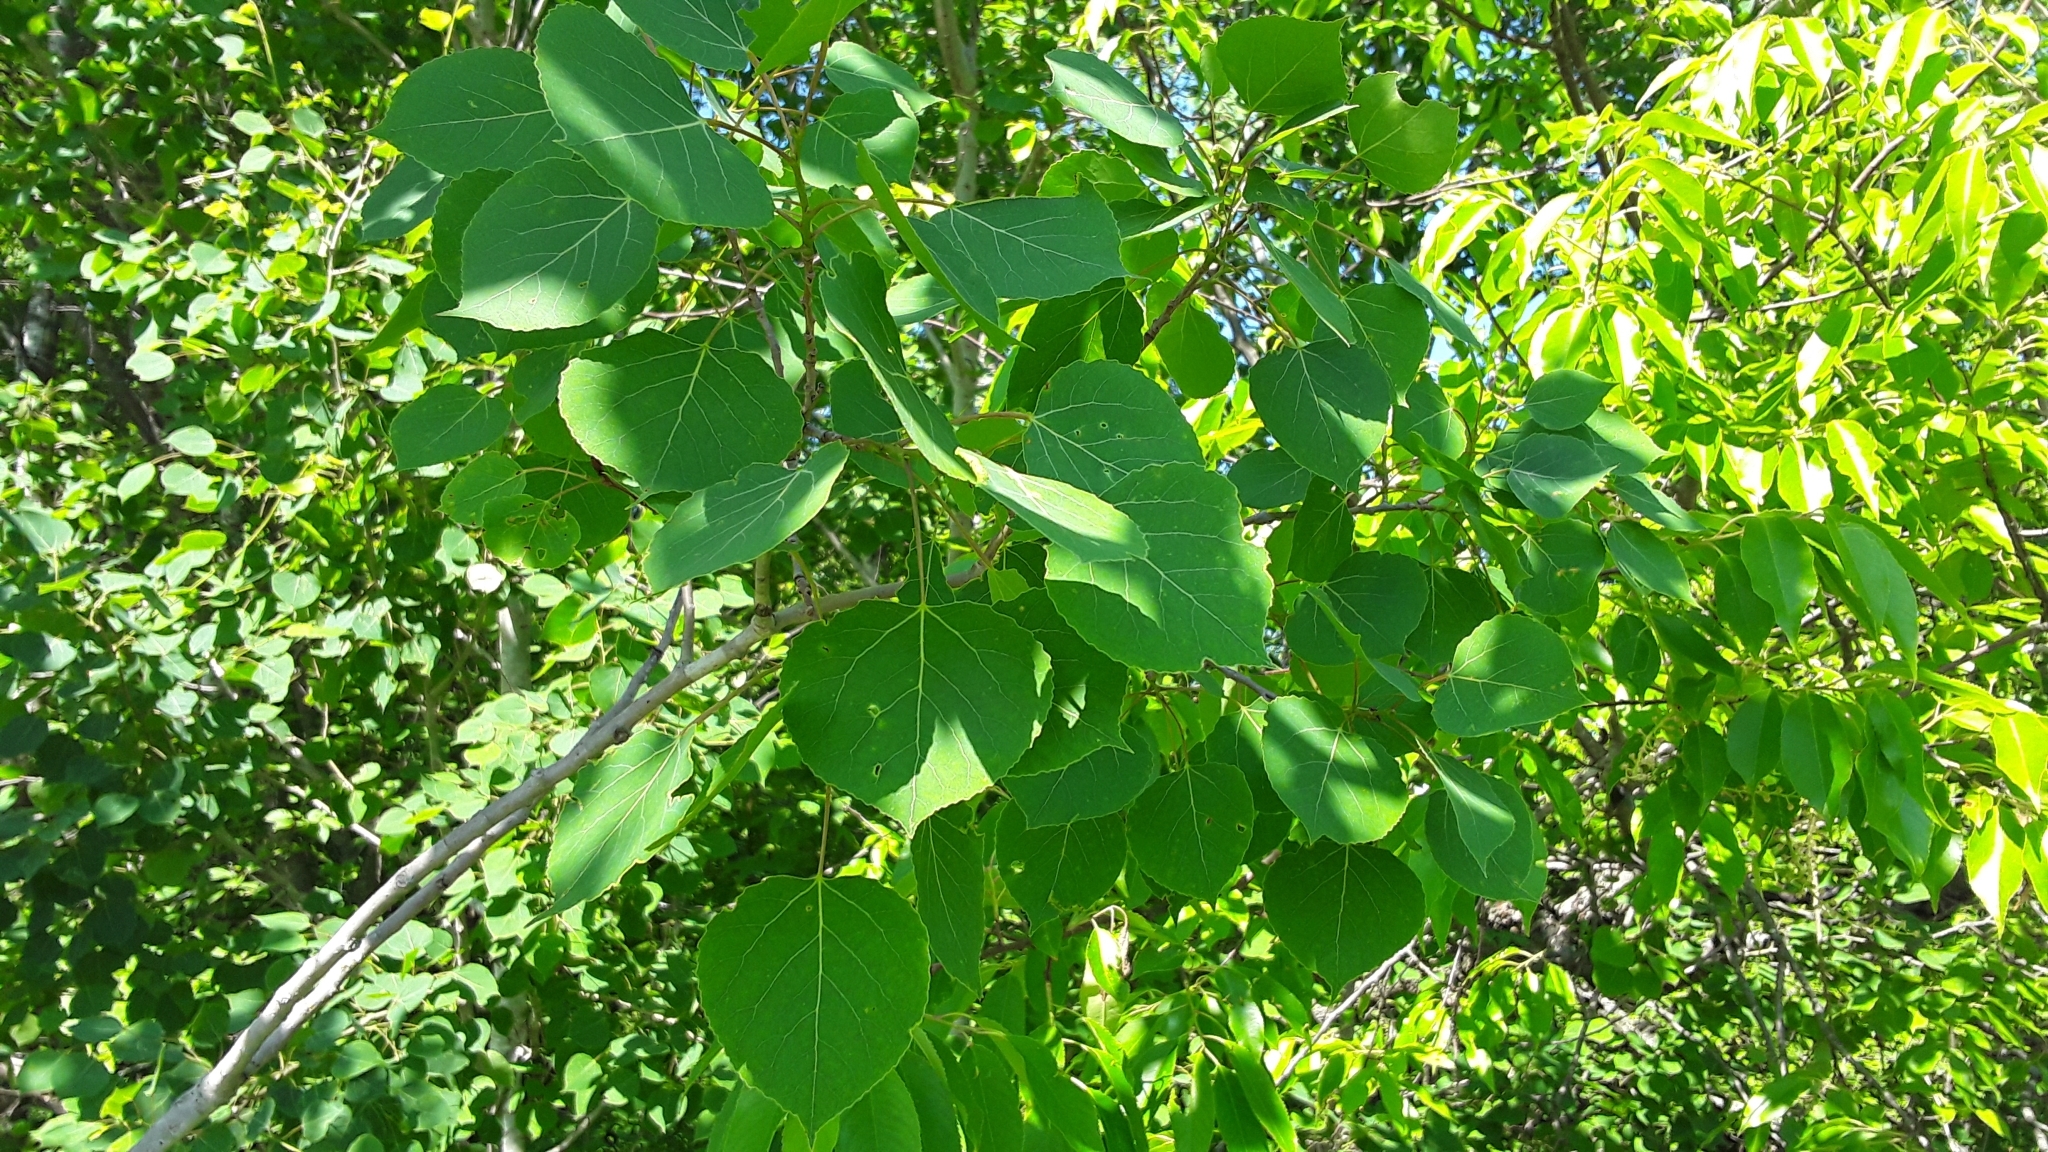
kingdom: Plantae
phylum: Tracheophyta
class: Magnoliopsida
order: Malpighiales
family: Salicaceae
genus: Populus
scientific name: Populus tremuloides
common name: Quaking aspen
